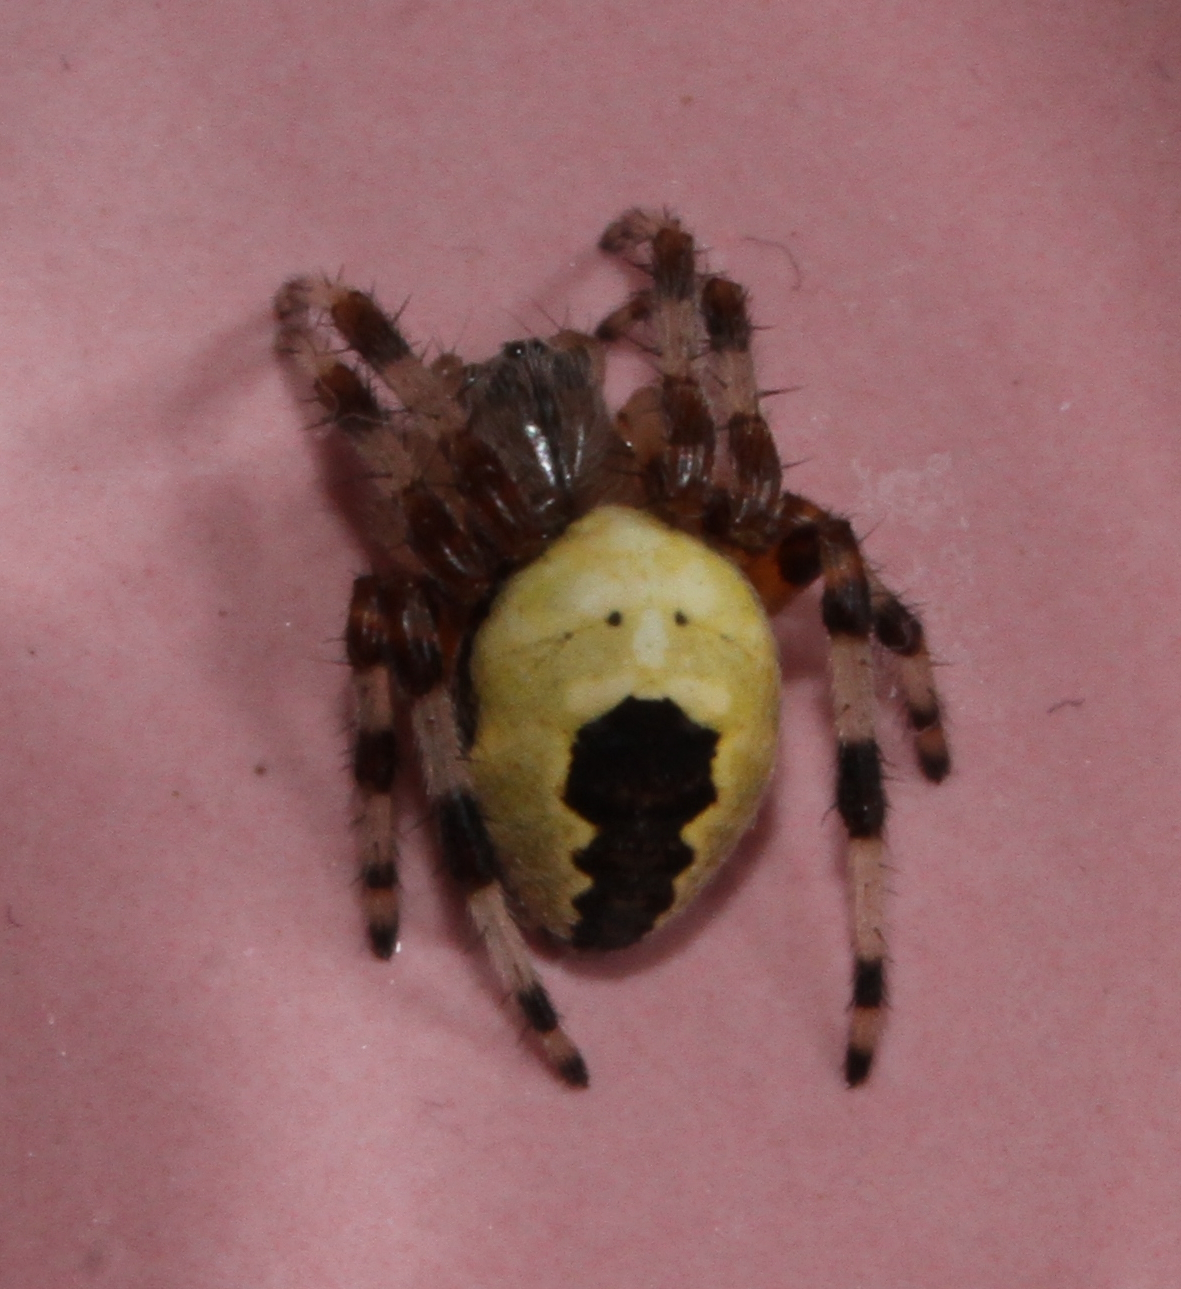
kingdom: Animalia
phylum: Arthropoda
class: Arachnida
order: Araneae
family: Araneidae
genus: Araneus
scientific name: Araneus marmoreus
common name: Marbled orbweaver
